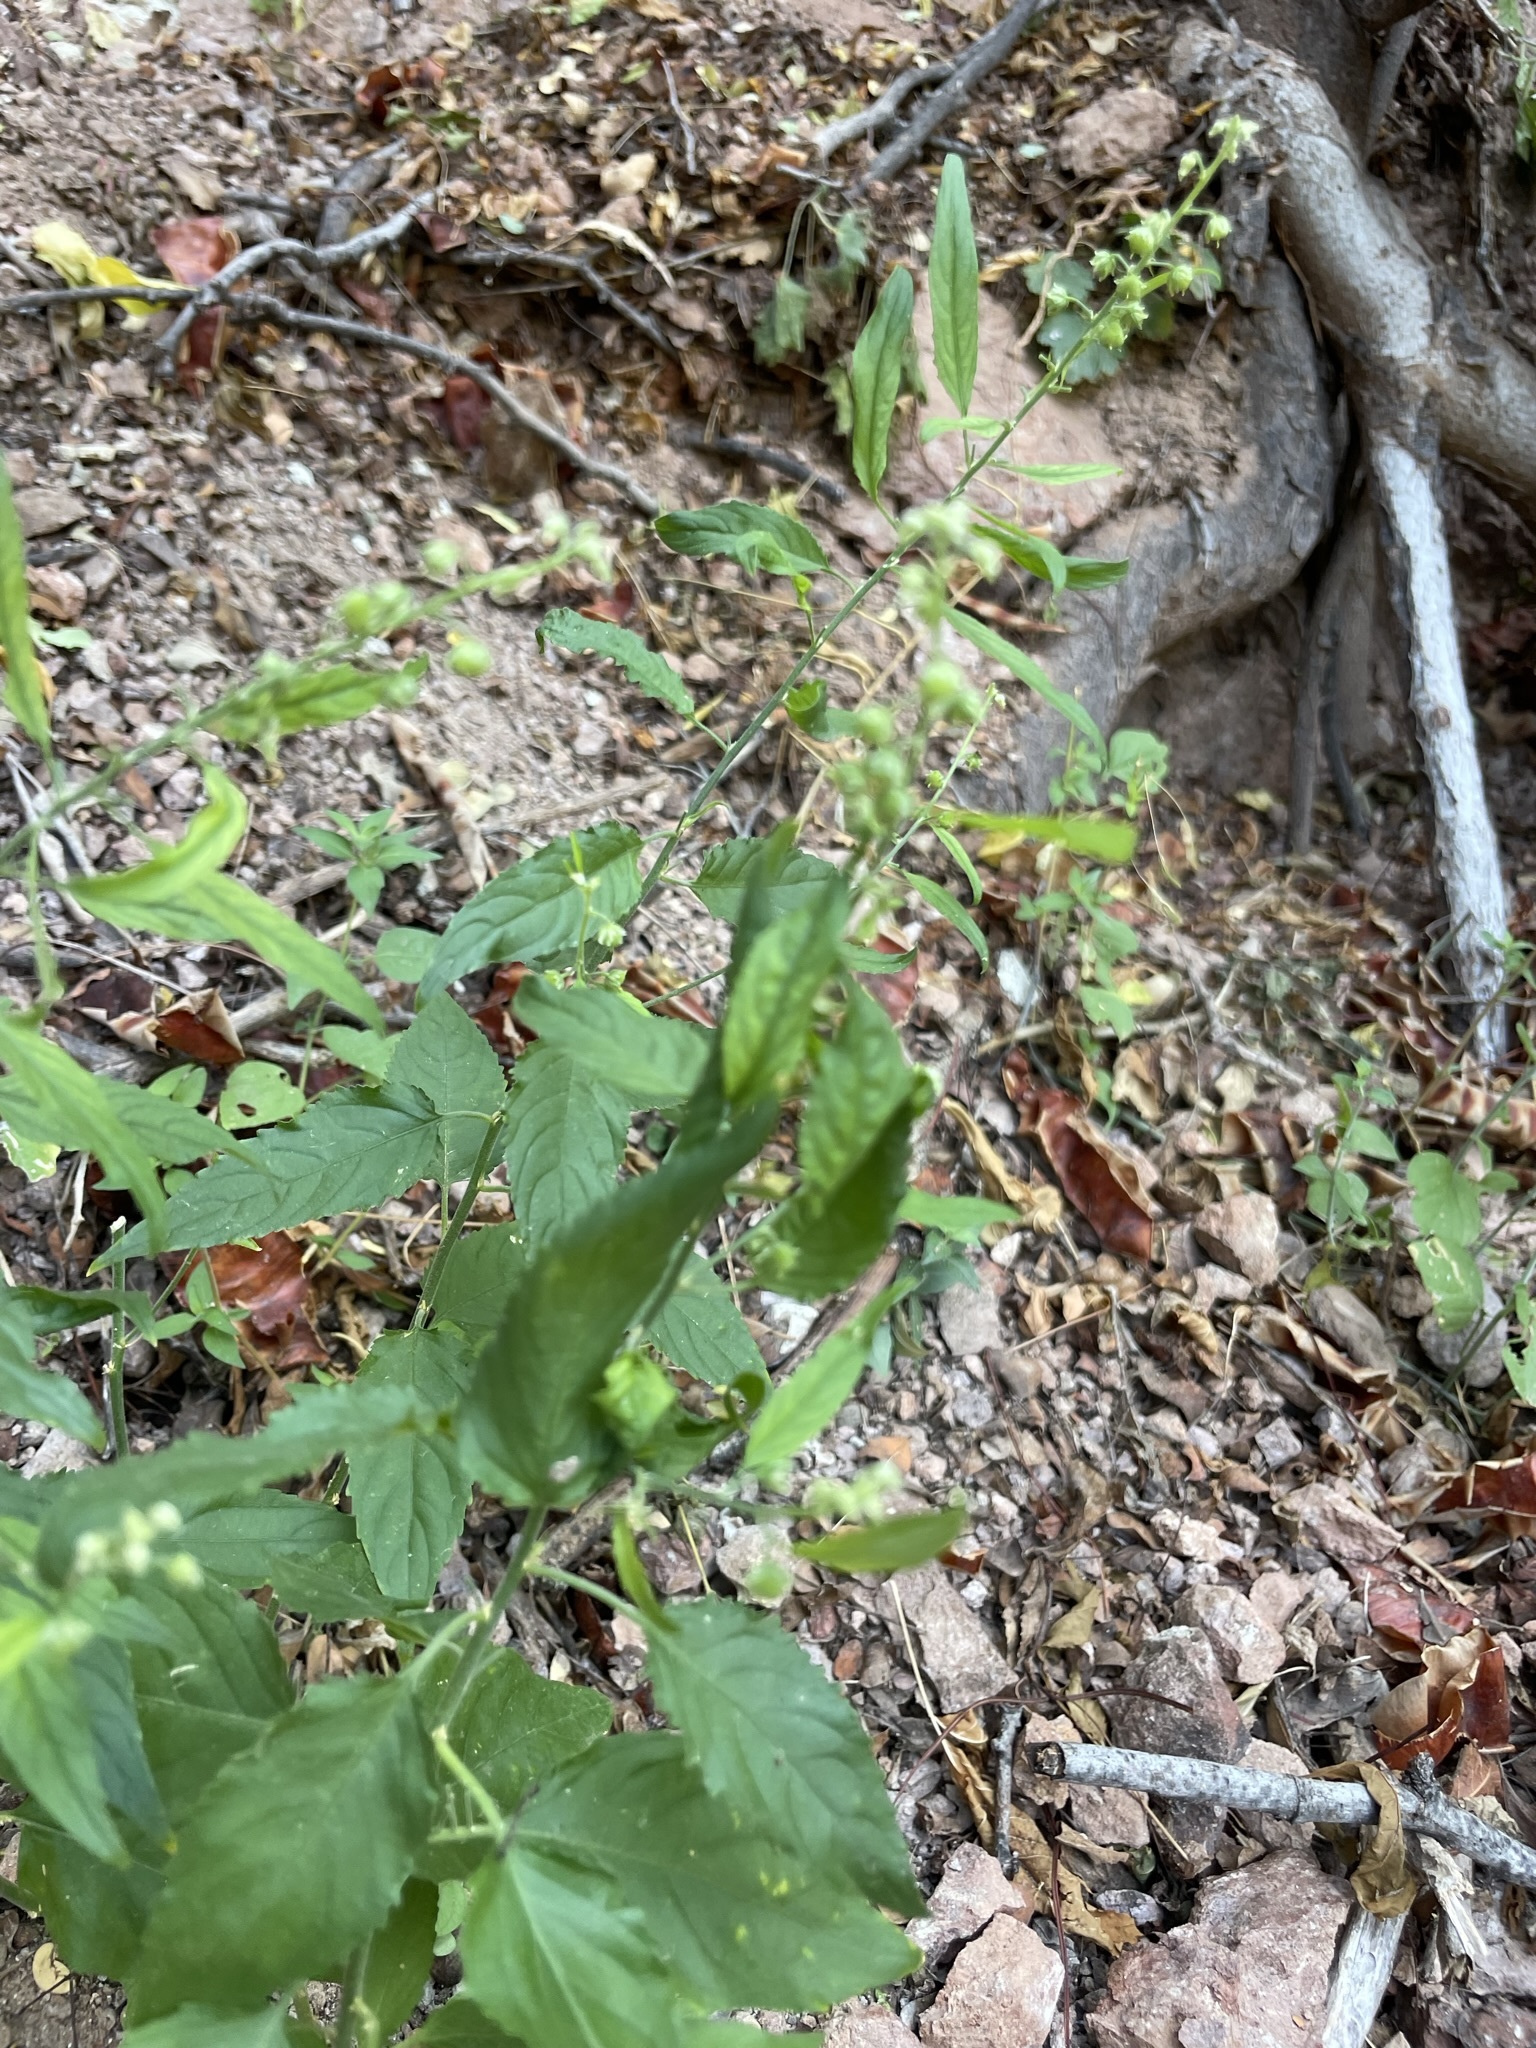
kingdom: Plantae
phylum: Tracheophyta
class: Magnoliopsida
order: Malpighiales
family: Violaceae
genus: Hybanthus
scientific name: Hybanthus fruticulosus
